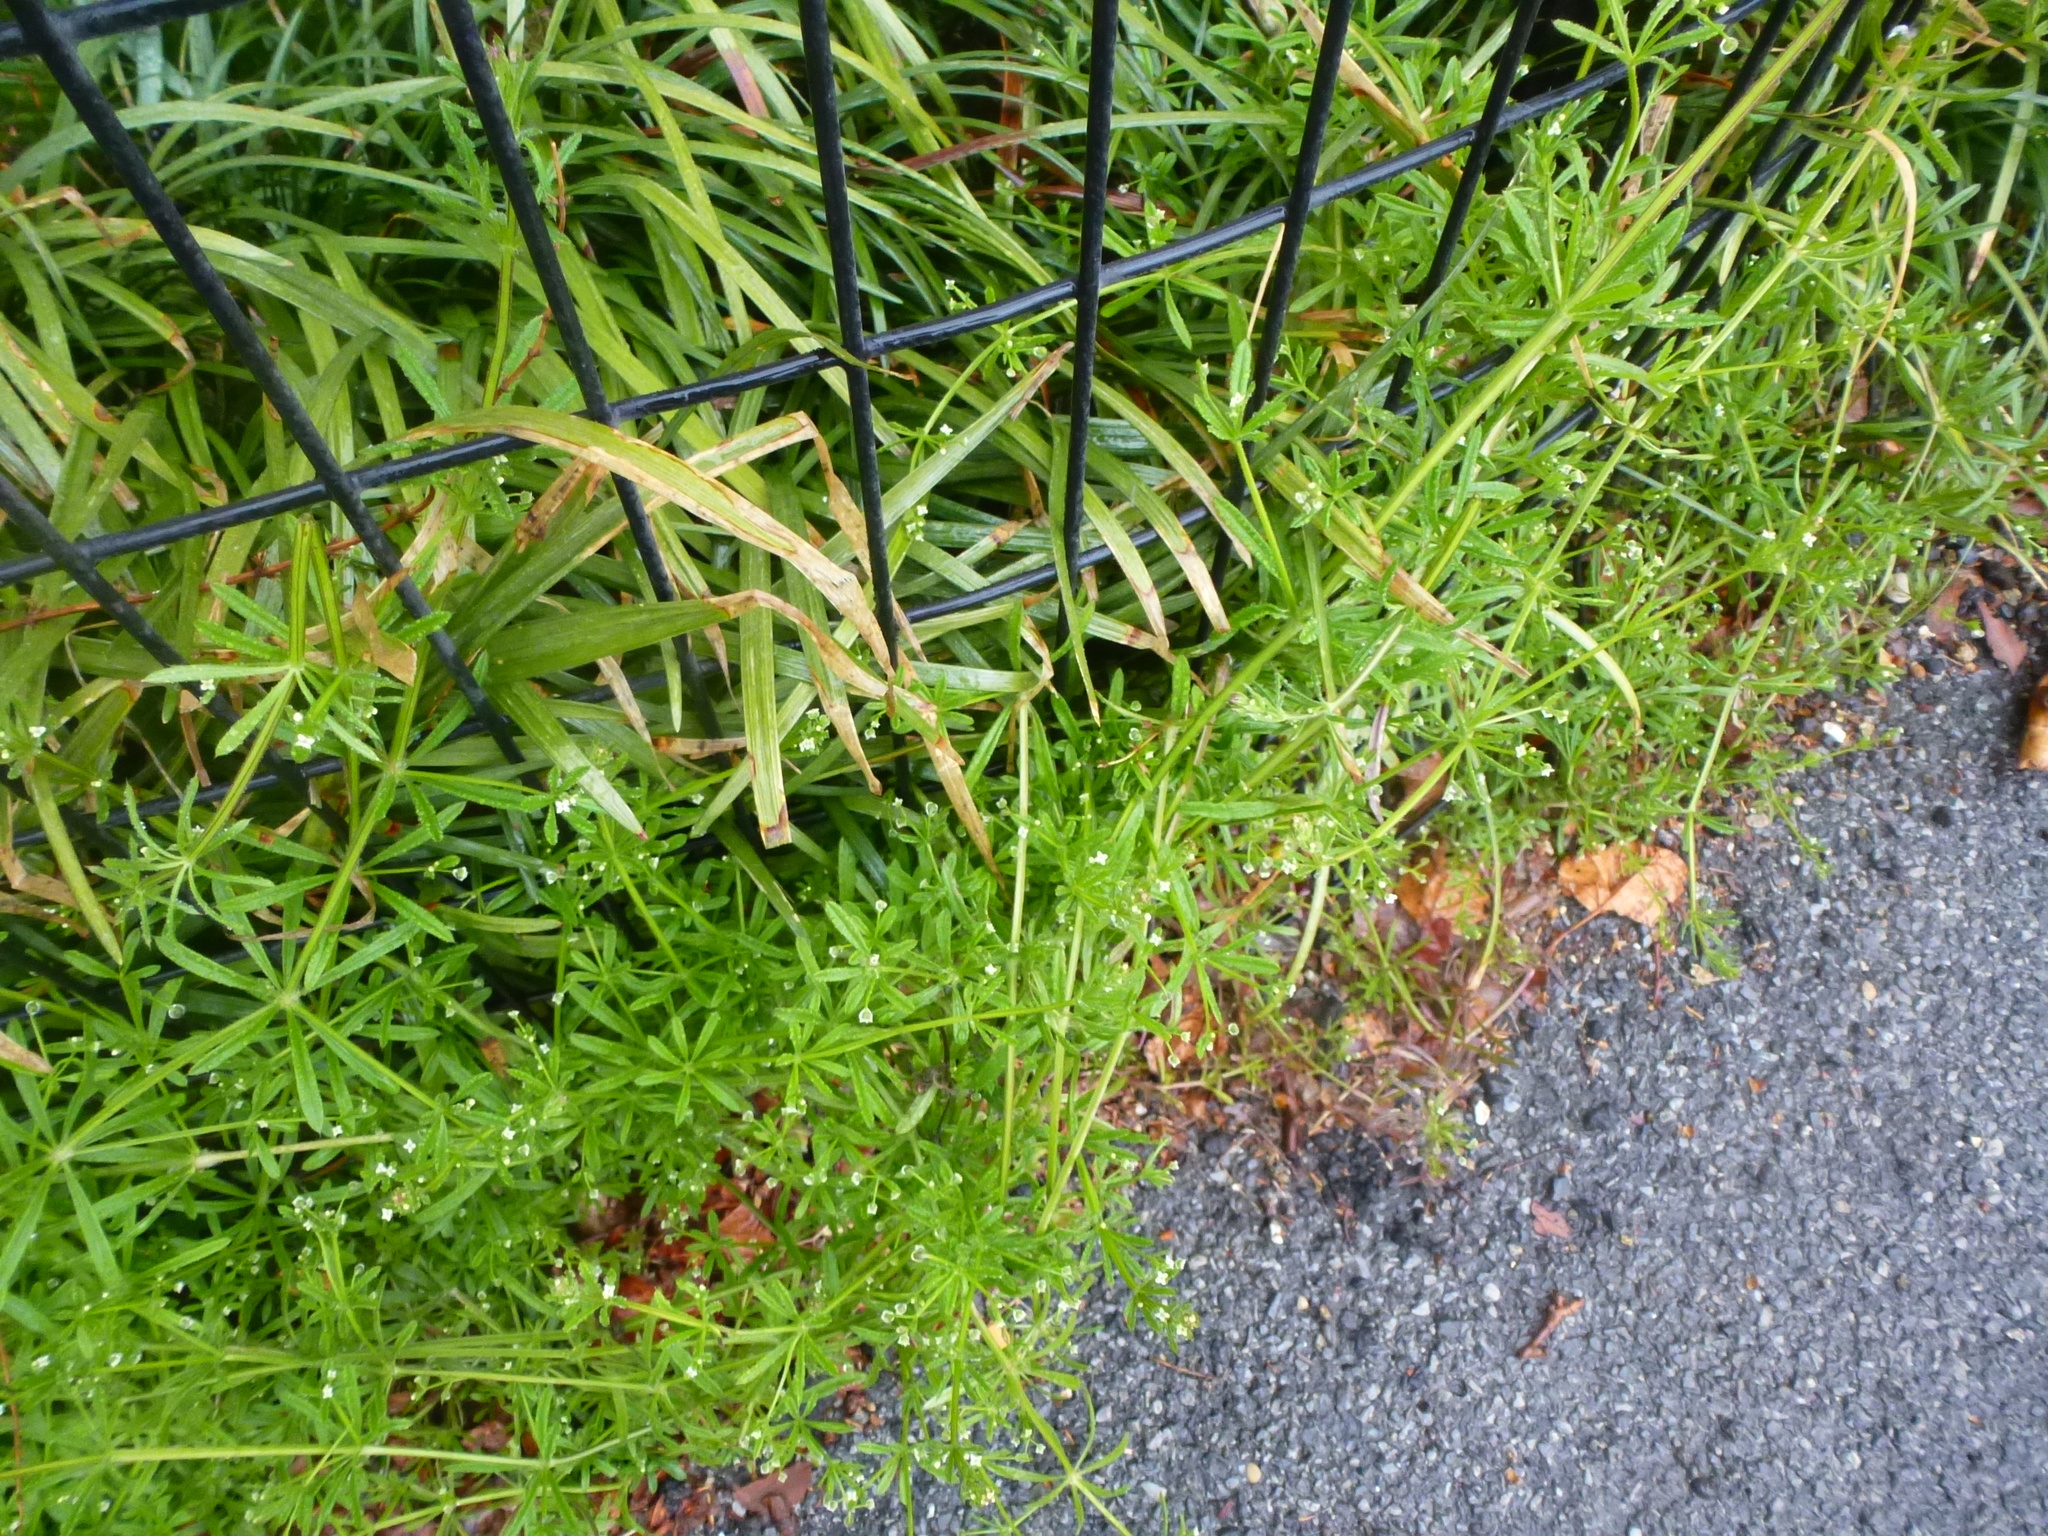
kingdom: Plantae
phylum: Tracheophyta
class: Magnoliopsida
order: Gentianales
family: Rubiaceae
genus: Galium
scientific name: Galium aparine
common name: Cleavers
